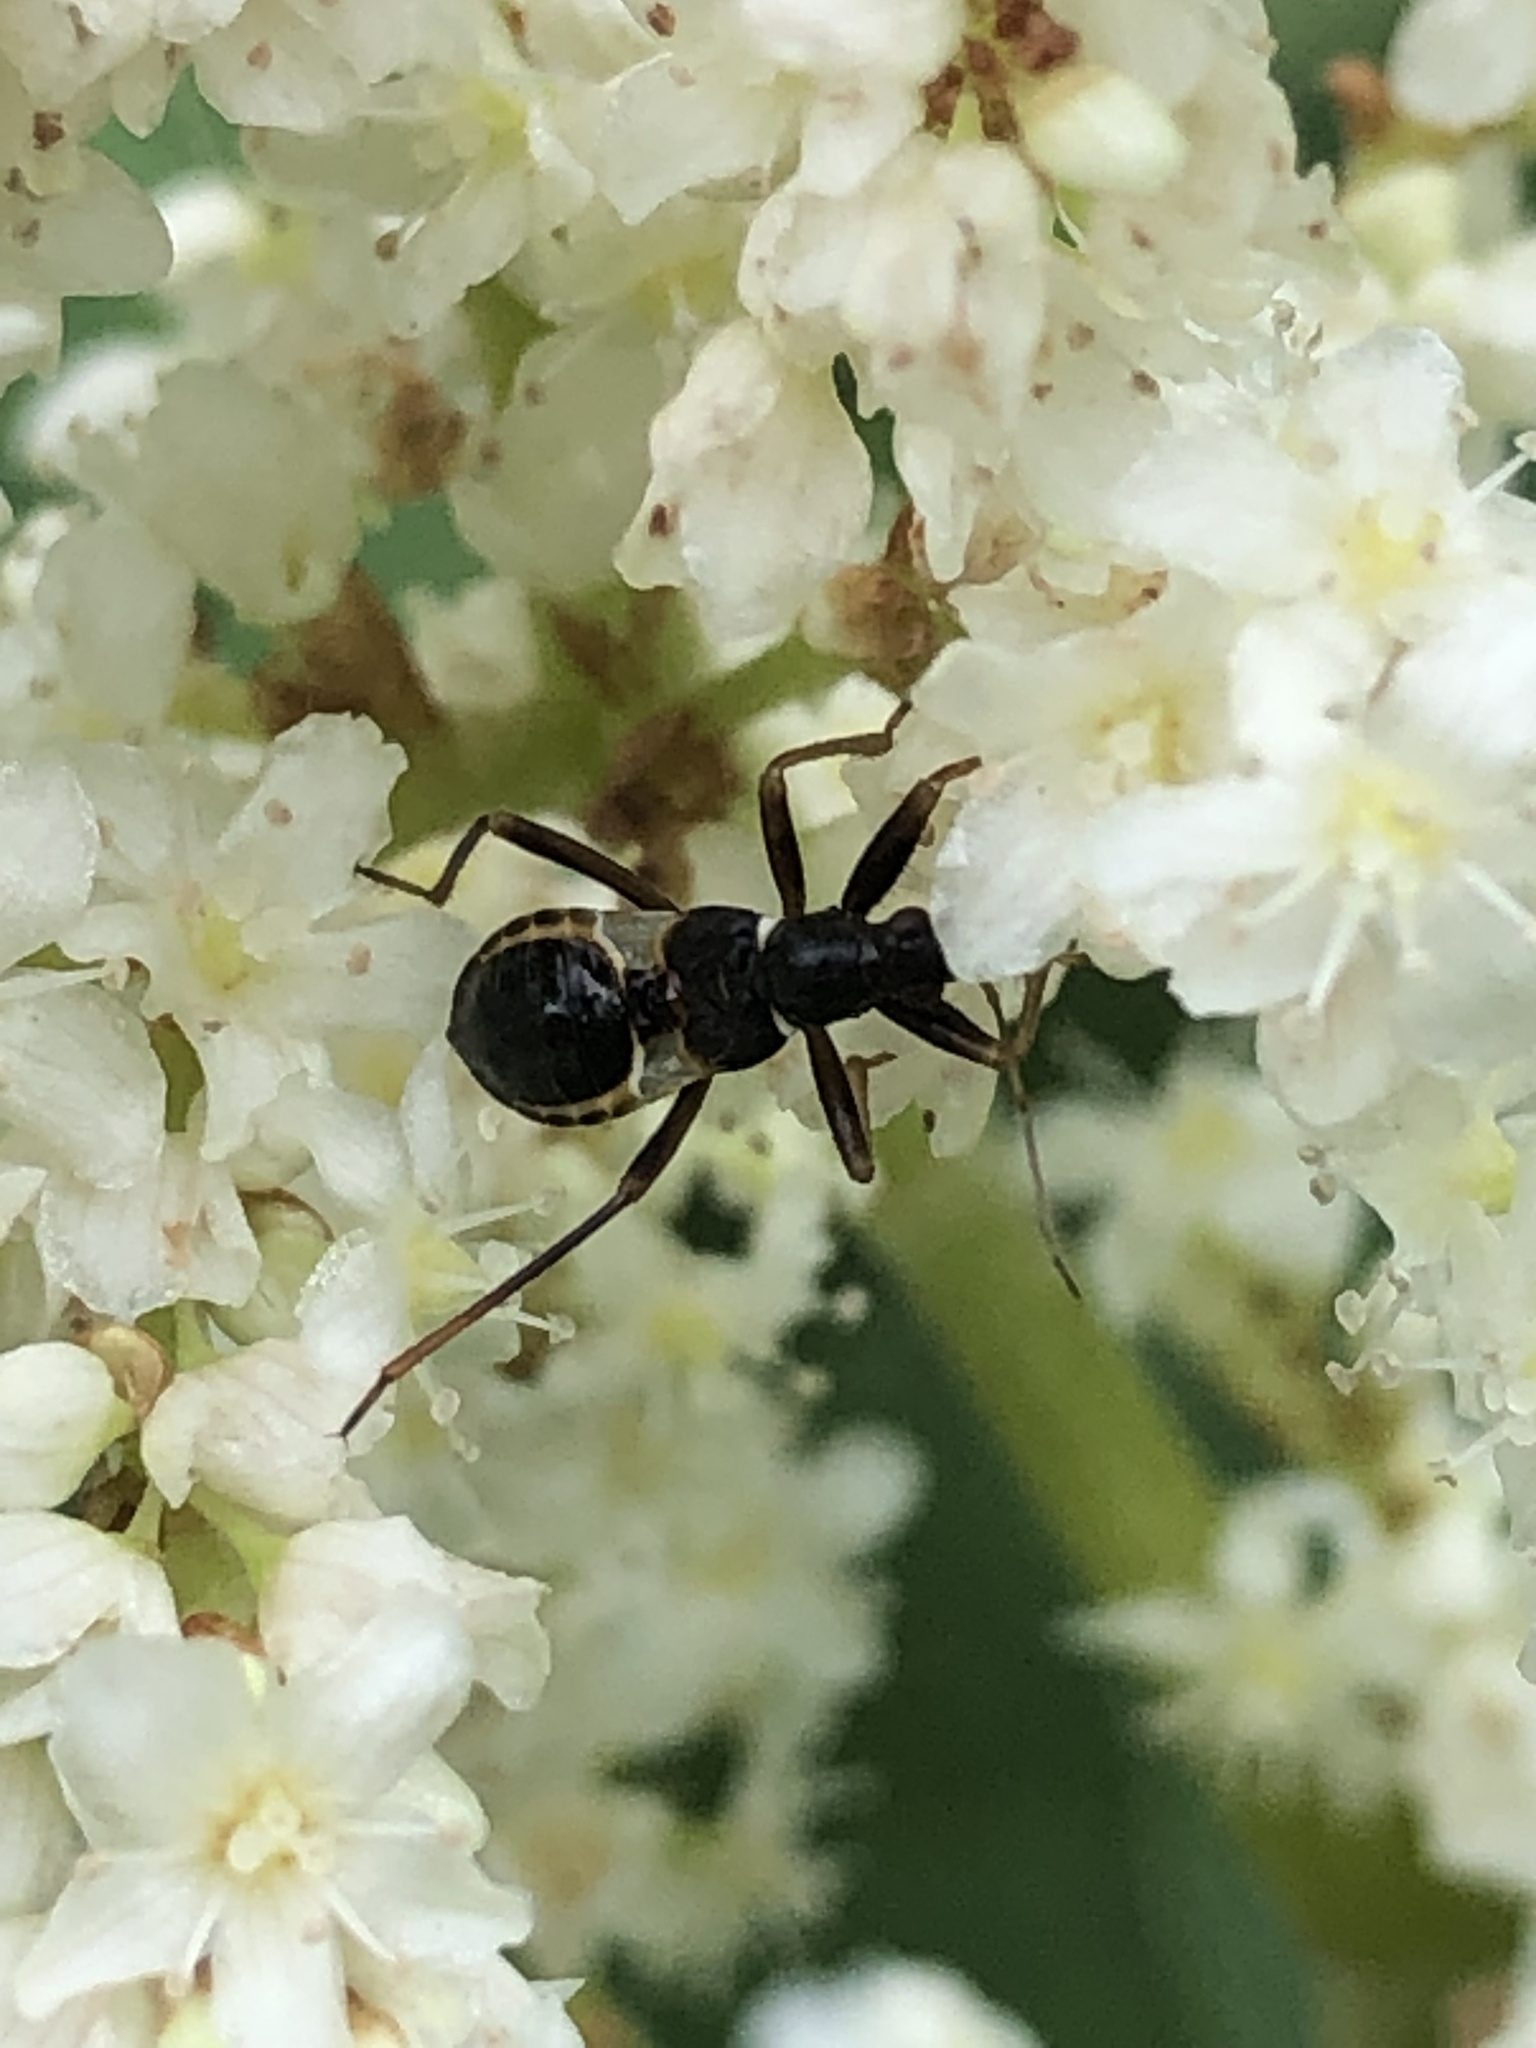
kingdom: Animalia
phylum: Arthropoda
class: Insecta
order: Hemiptera
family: Nabidae
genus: Himacerus
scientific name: Himacerus mirmicoides
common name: Ant damsel bug
